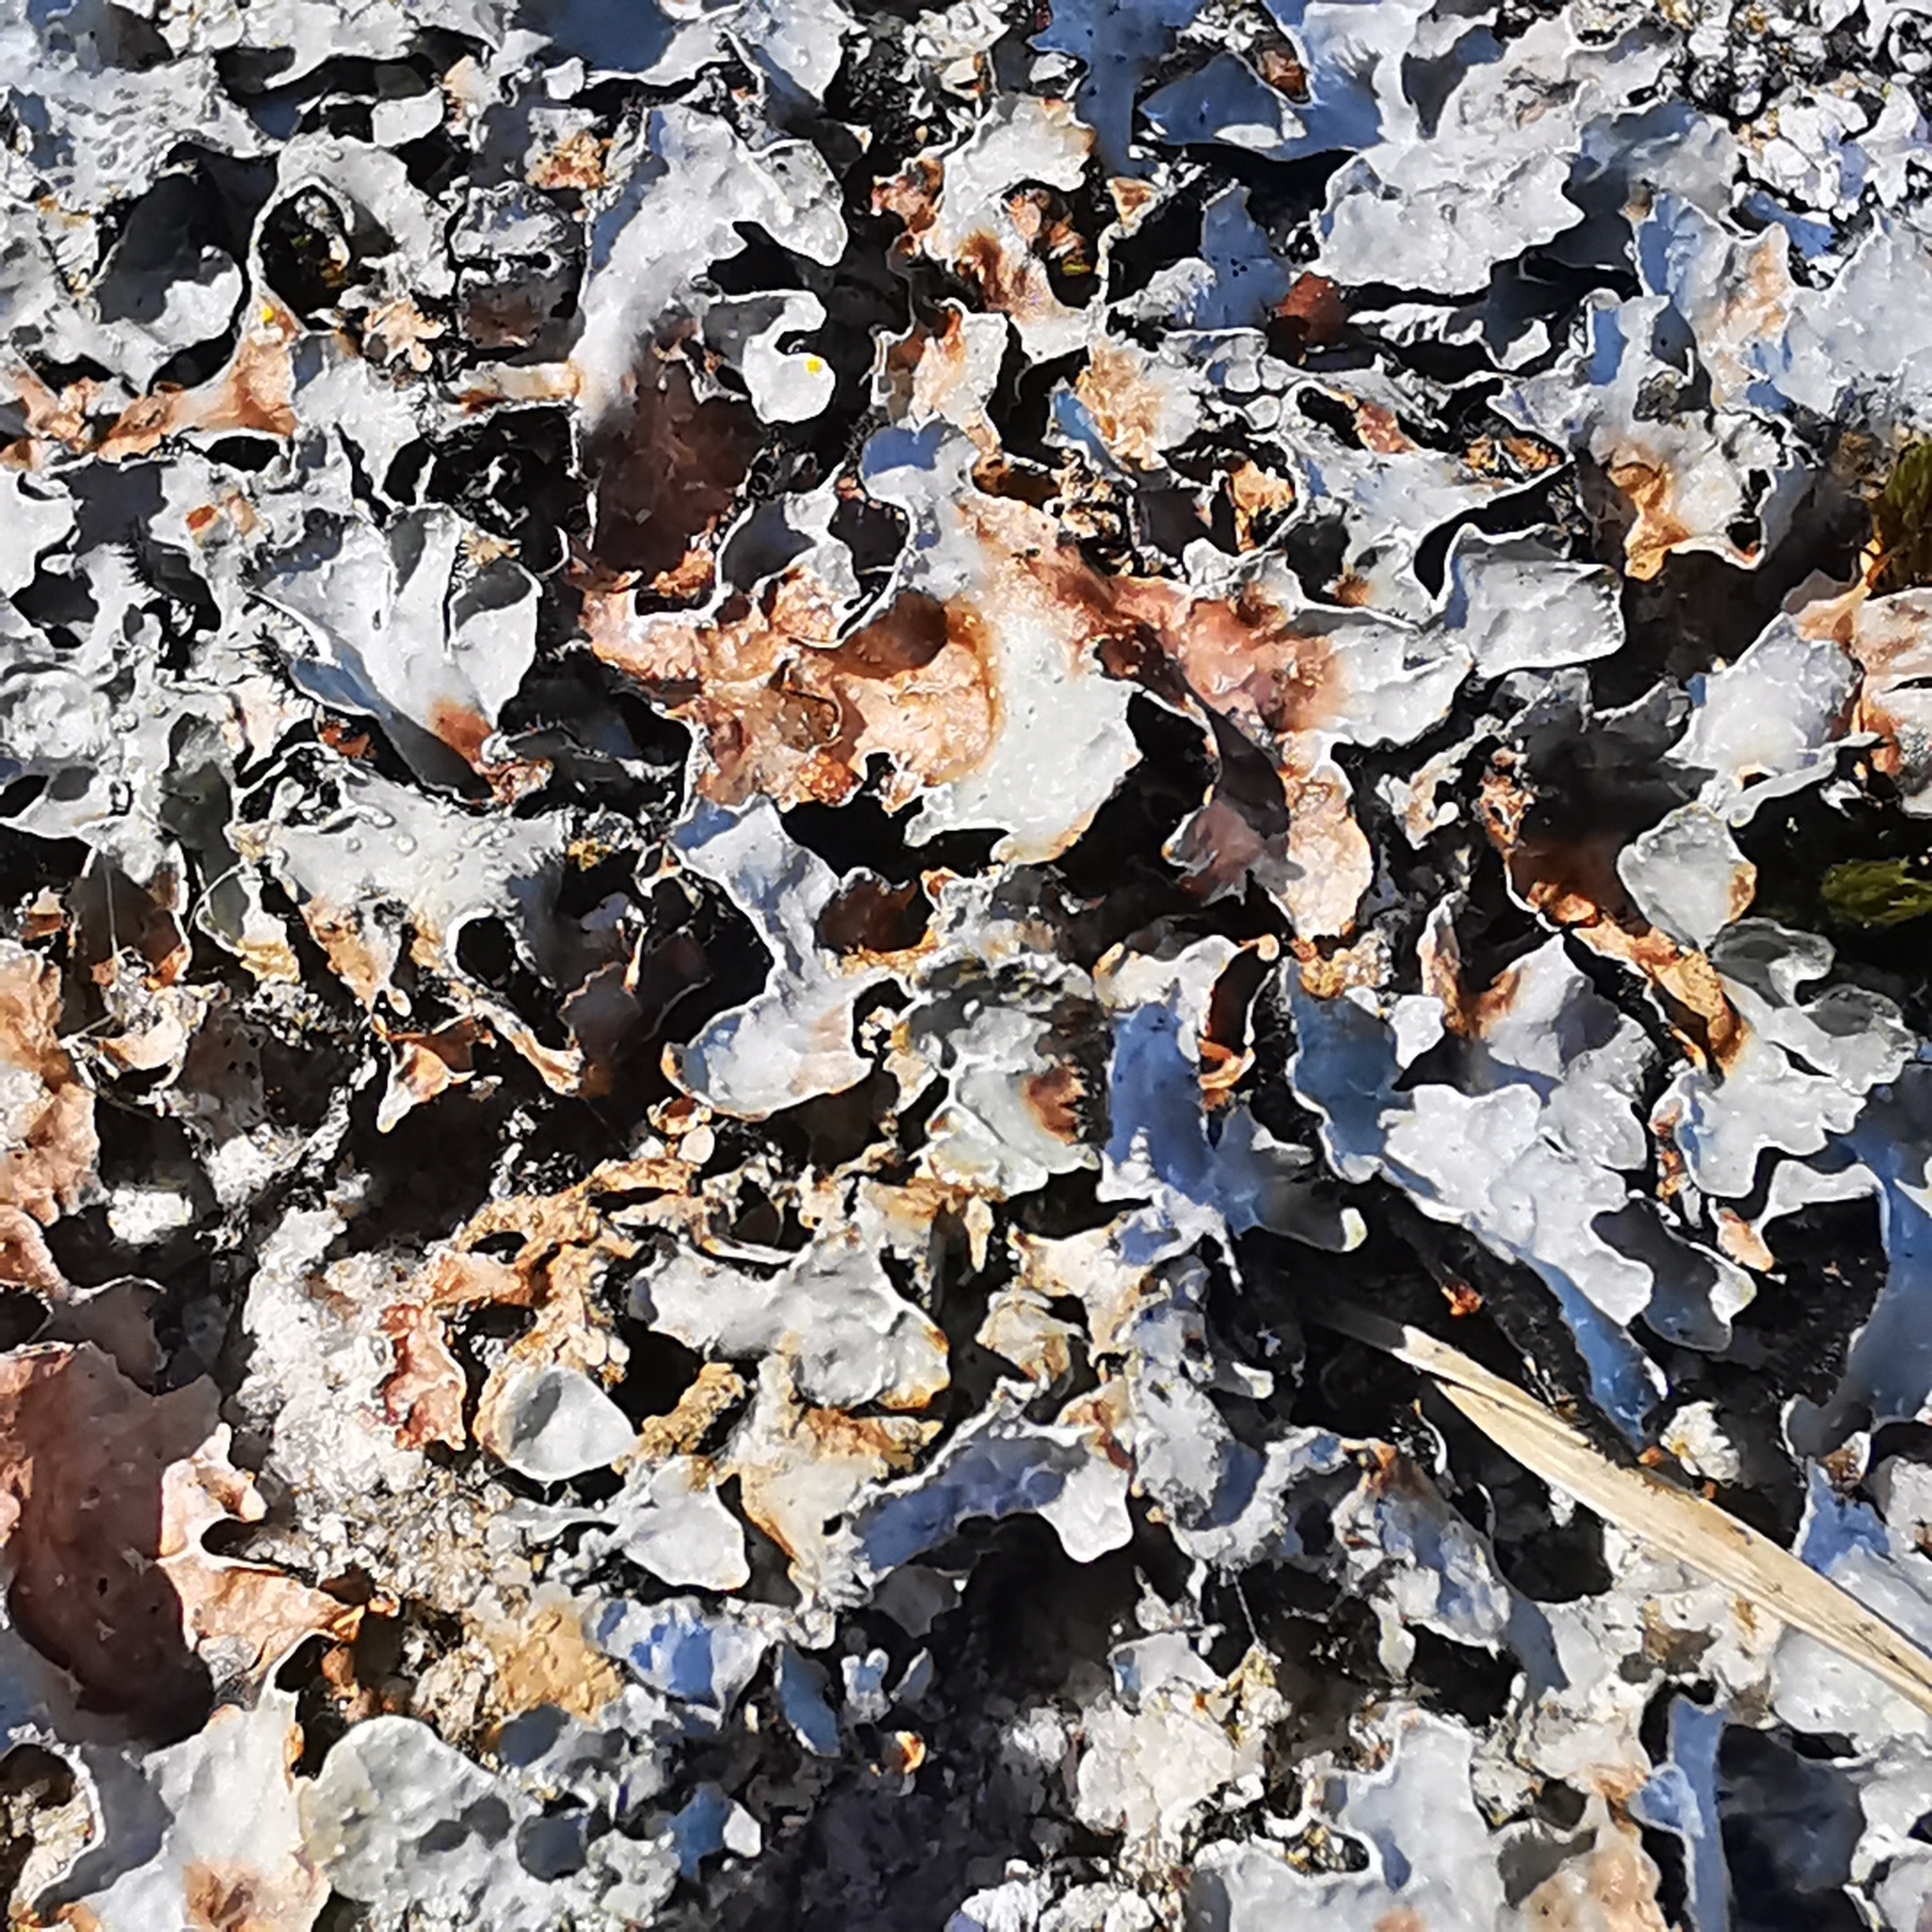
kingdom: Fungi
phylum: Ascomycota
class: Lecanoromycetes
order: Lecanorales
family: Parmeliaceae
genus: Parmelia
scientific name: Parmelia sulcata
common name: Netted shield lichen
